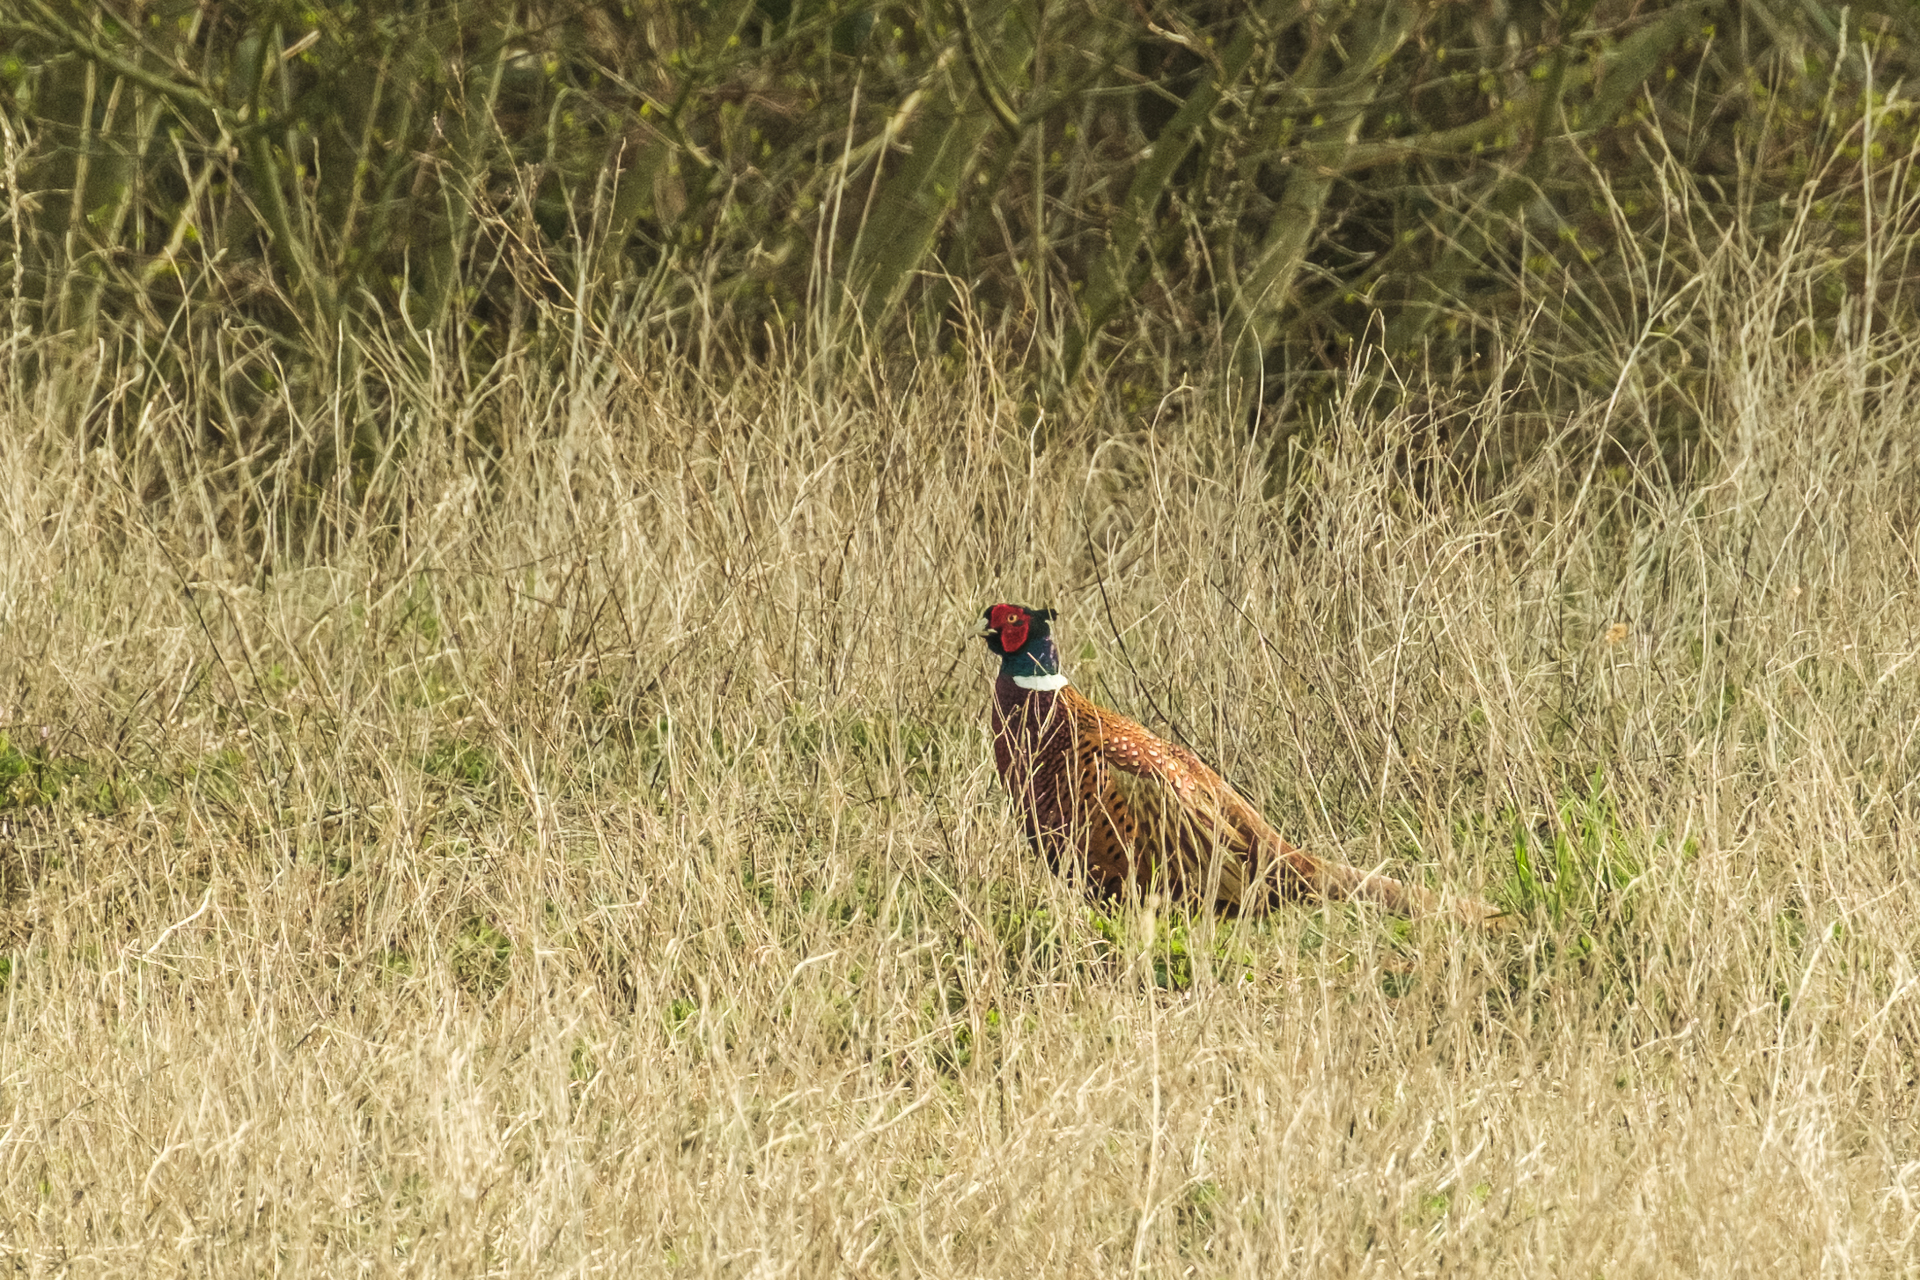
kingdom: Animalia
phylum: Chordata
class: Aves
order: Galliformes
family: Phasianidae
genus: Phasianus
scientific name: Phasianus colchicus
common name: Common pheasant
